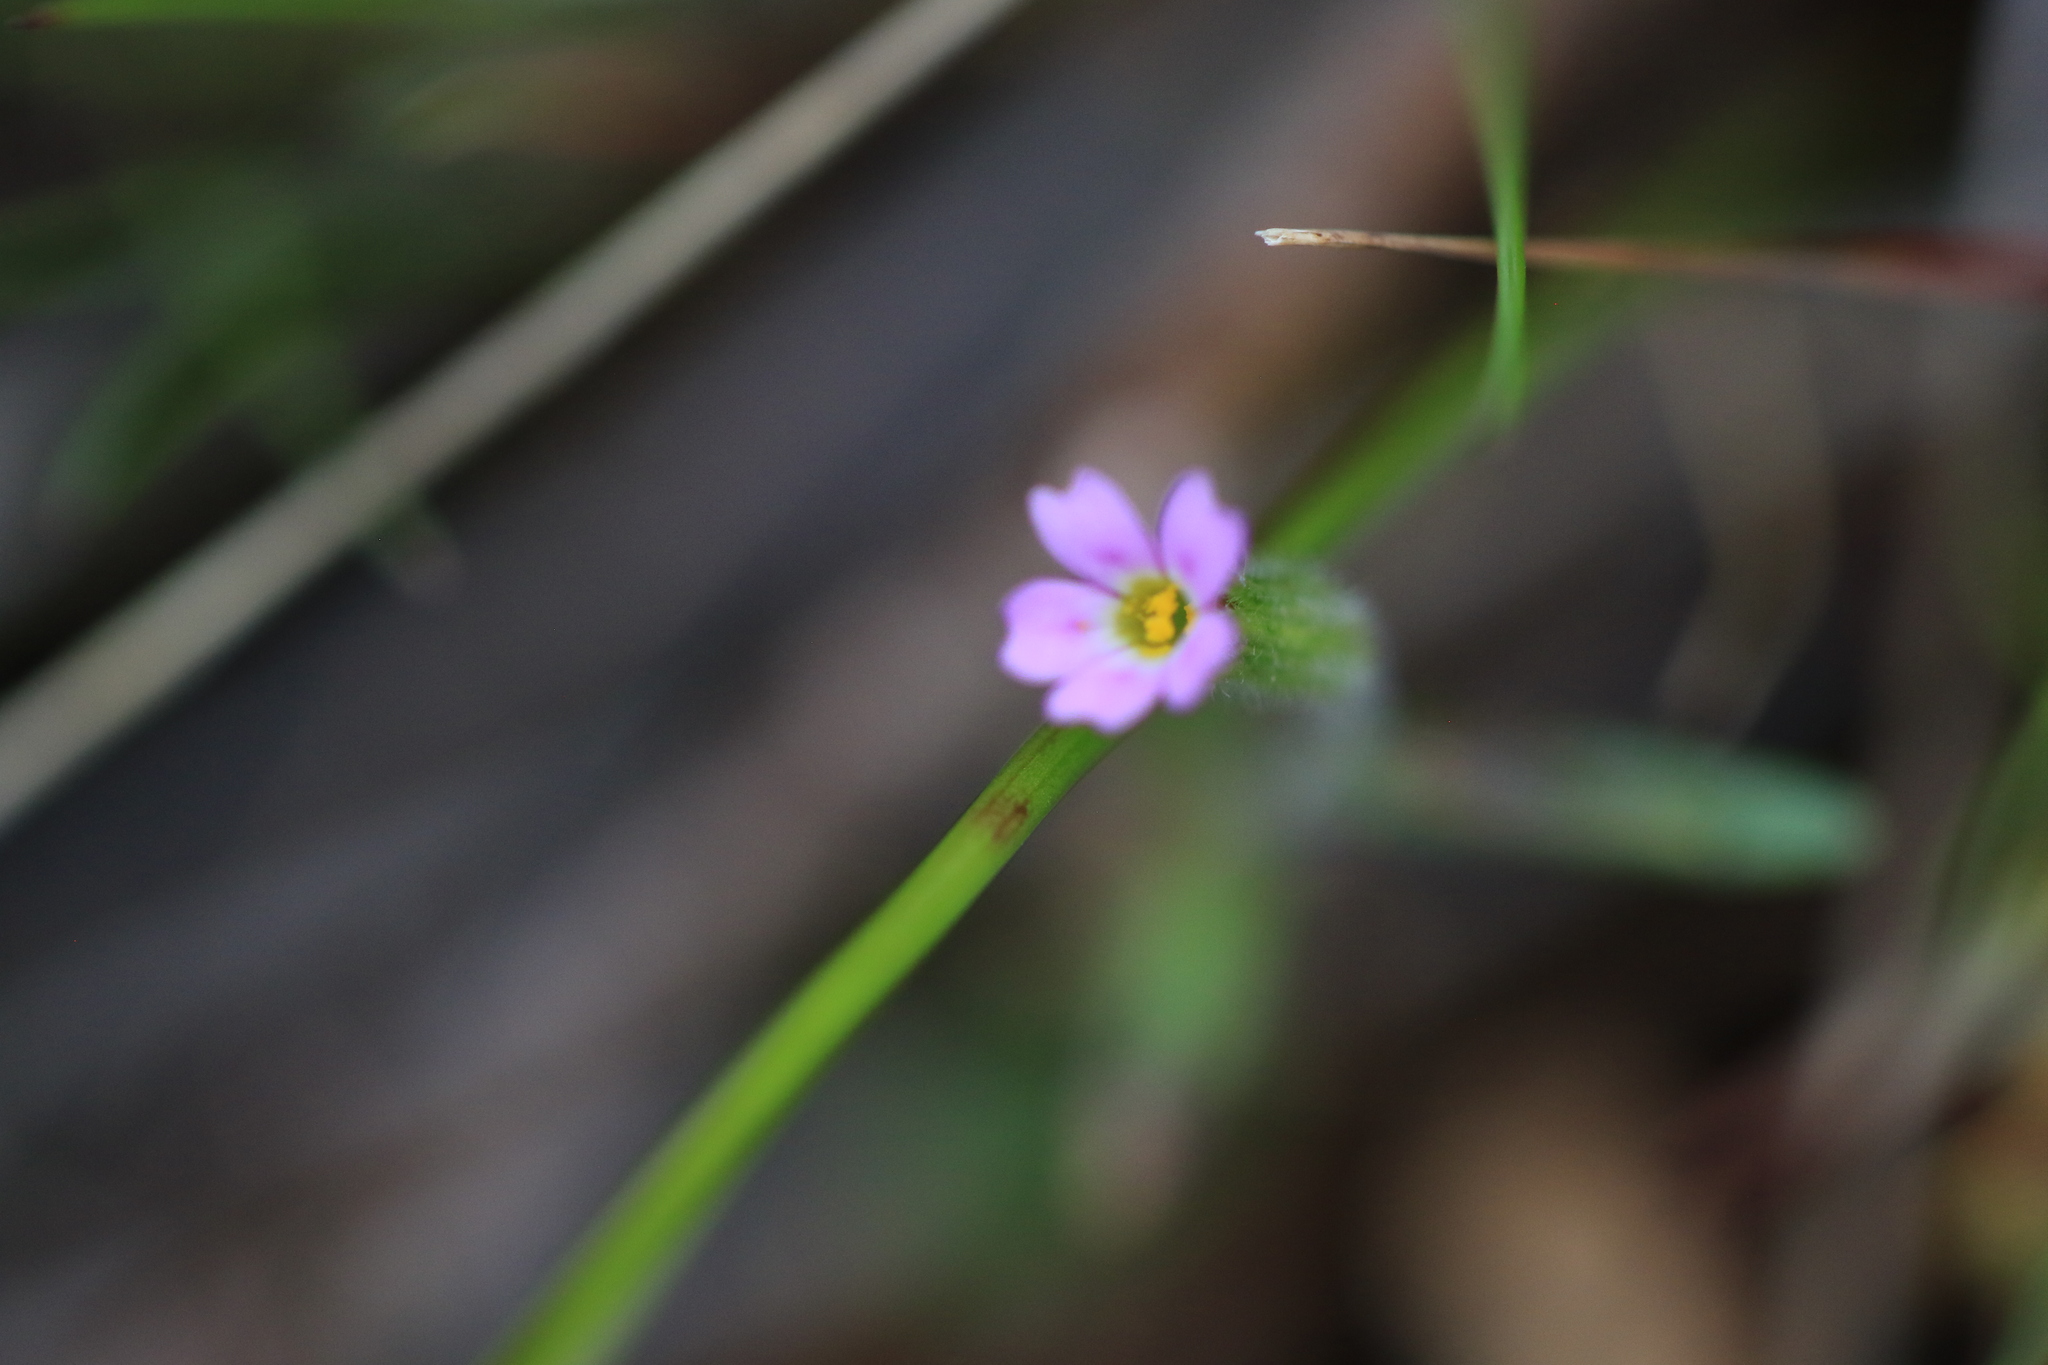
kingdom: Plantae
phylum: Tracheophyta
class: Magnoliopsida
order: Ericales
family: Polemoniaceae
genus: Phlox
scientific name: Phlox gracilis
